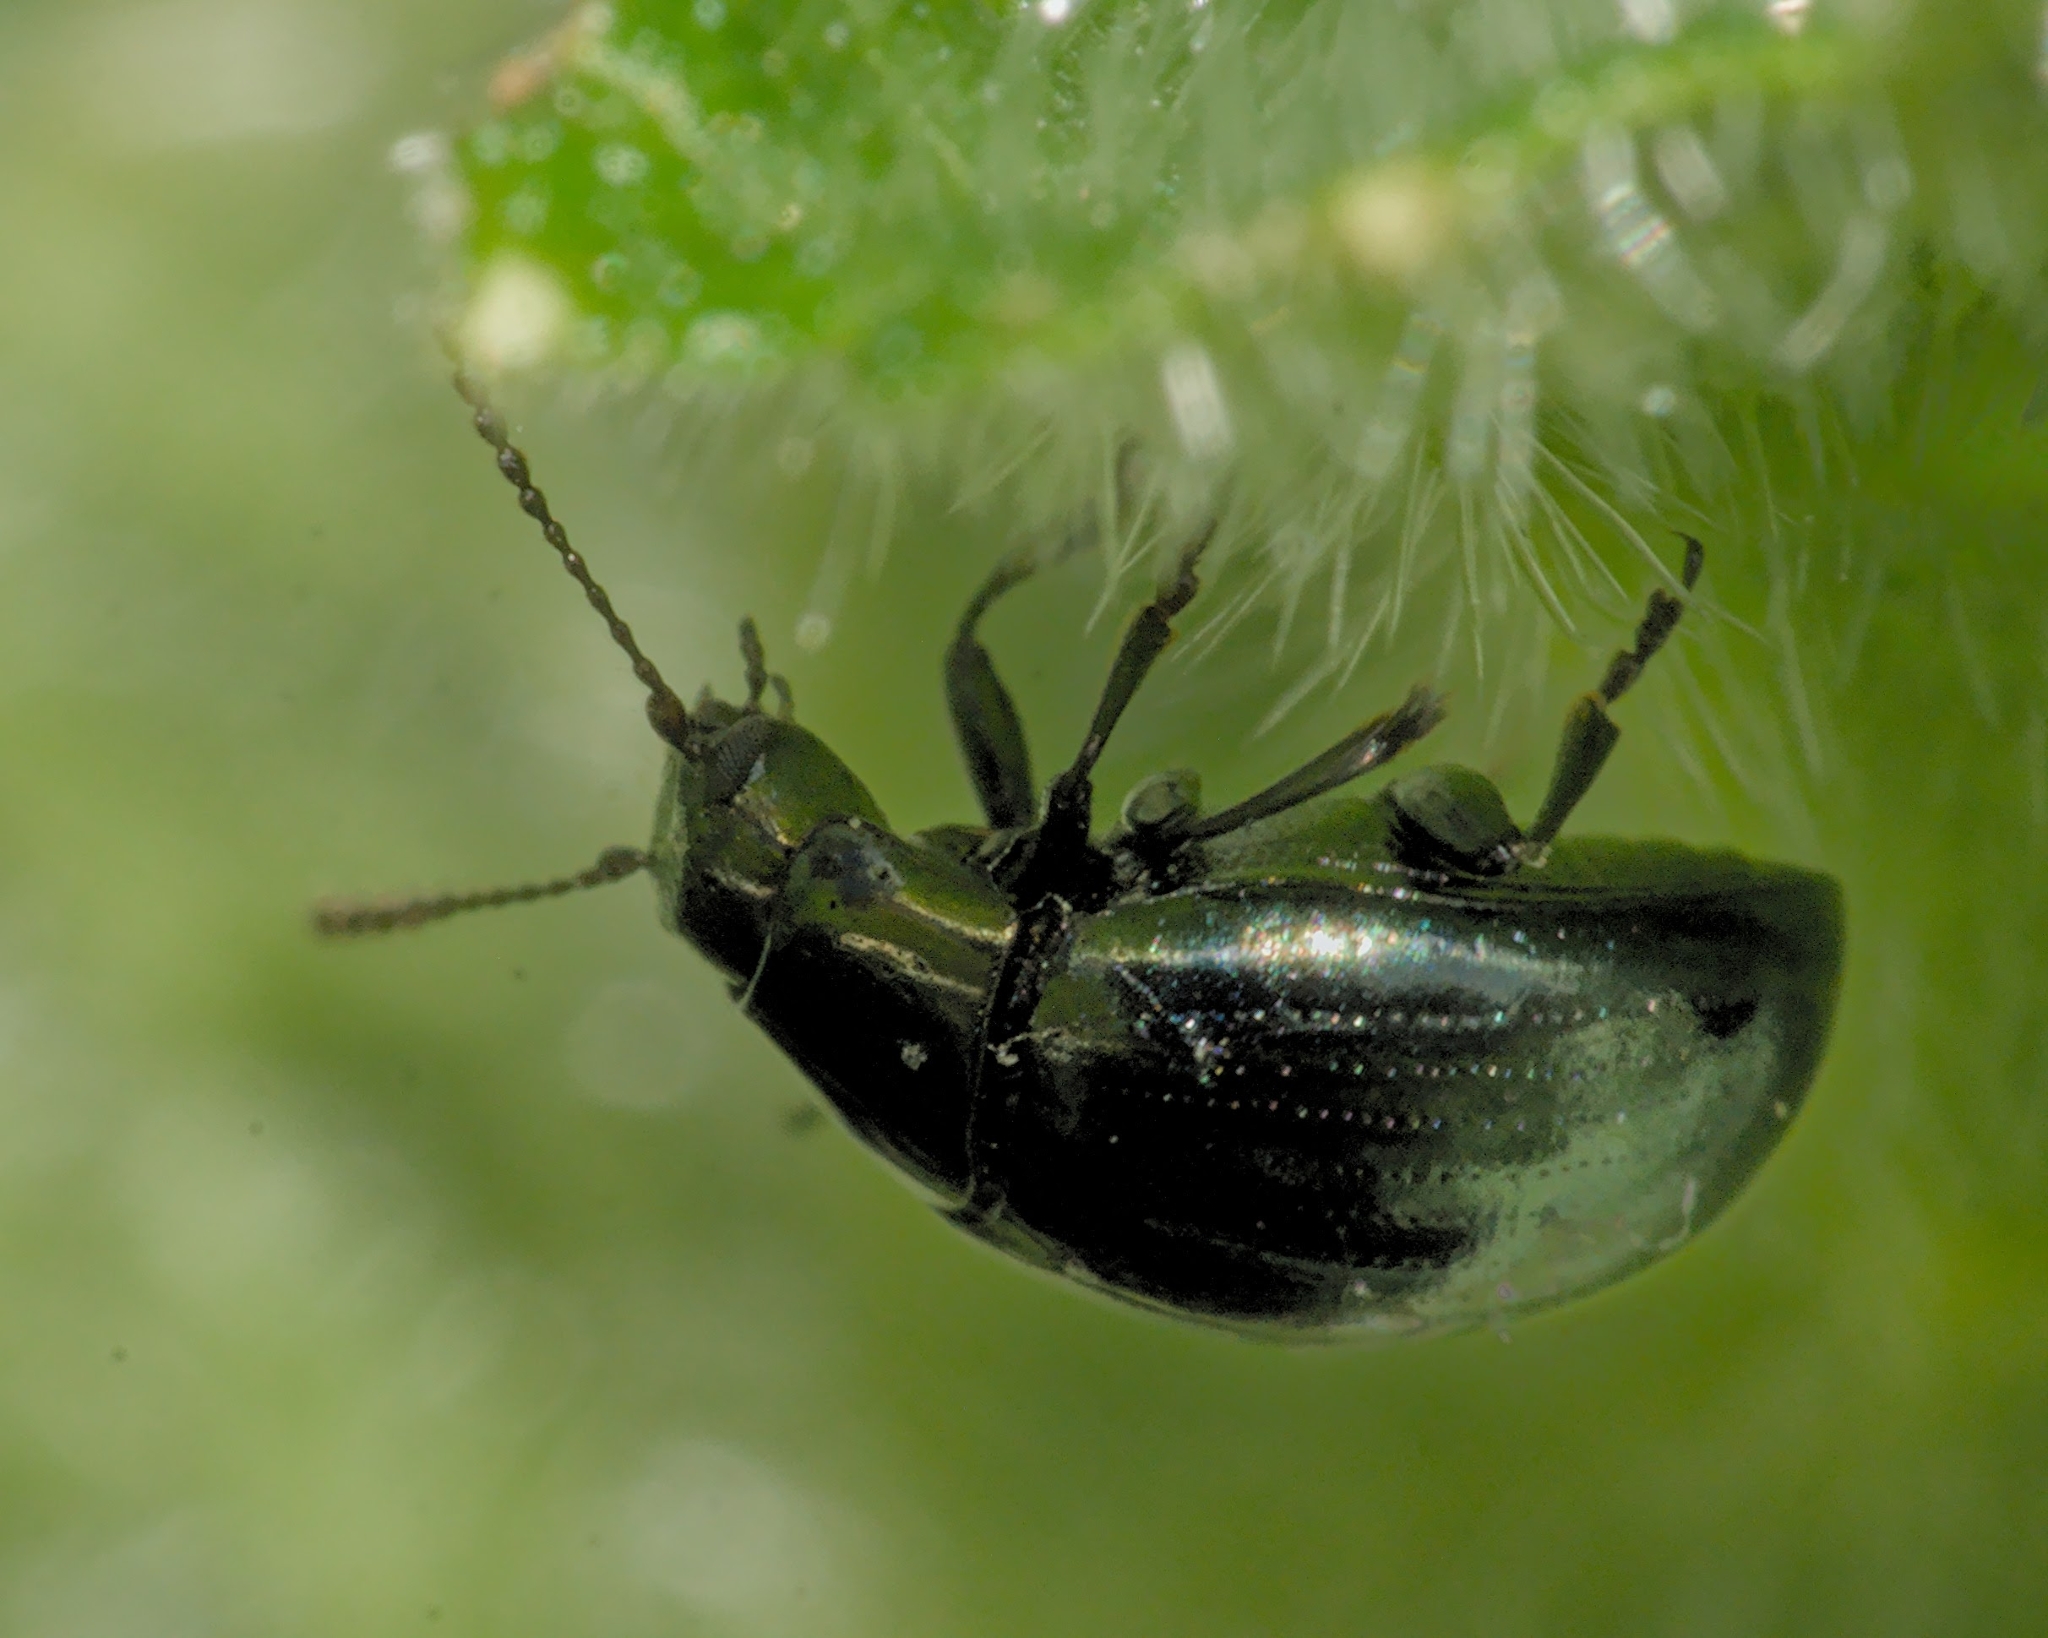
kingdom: Animalia
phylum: Arthropoda
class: Insecta
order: Coleoptera
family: Chrysomelidae
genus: Phaedon
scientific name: Phaedon tumidulus
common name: Celery leaf beetle
